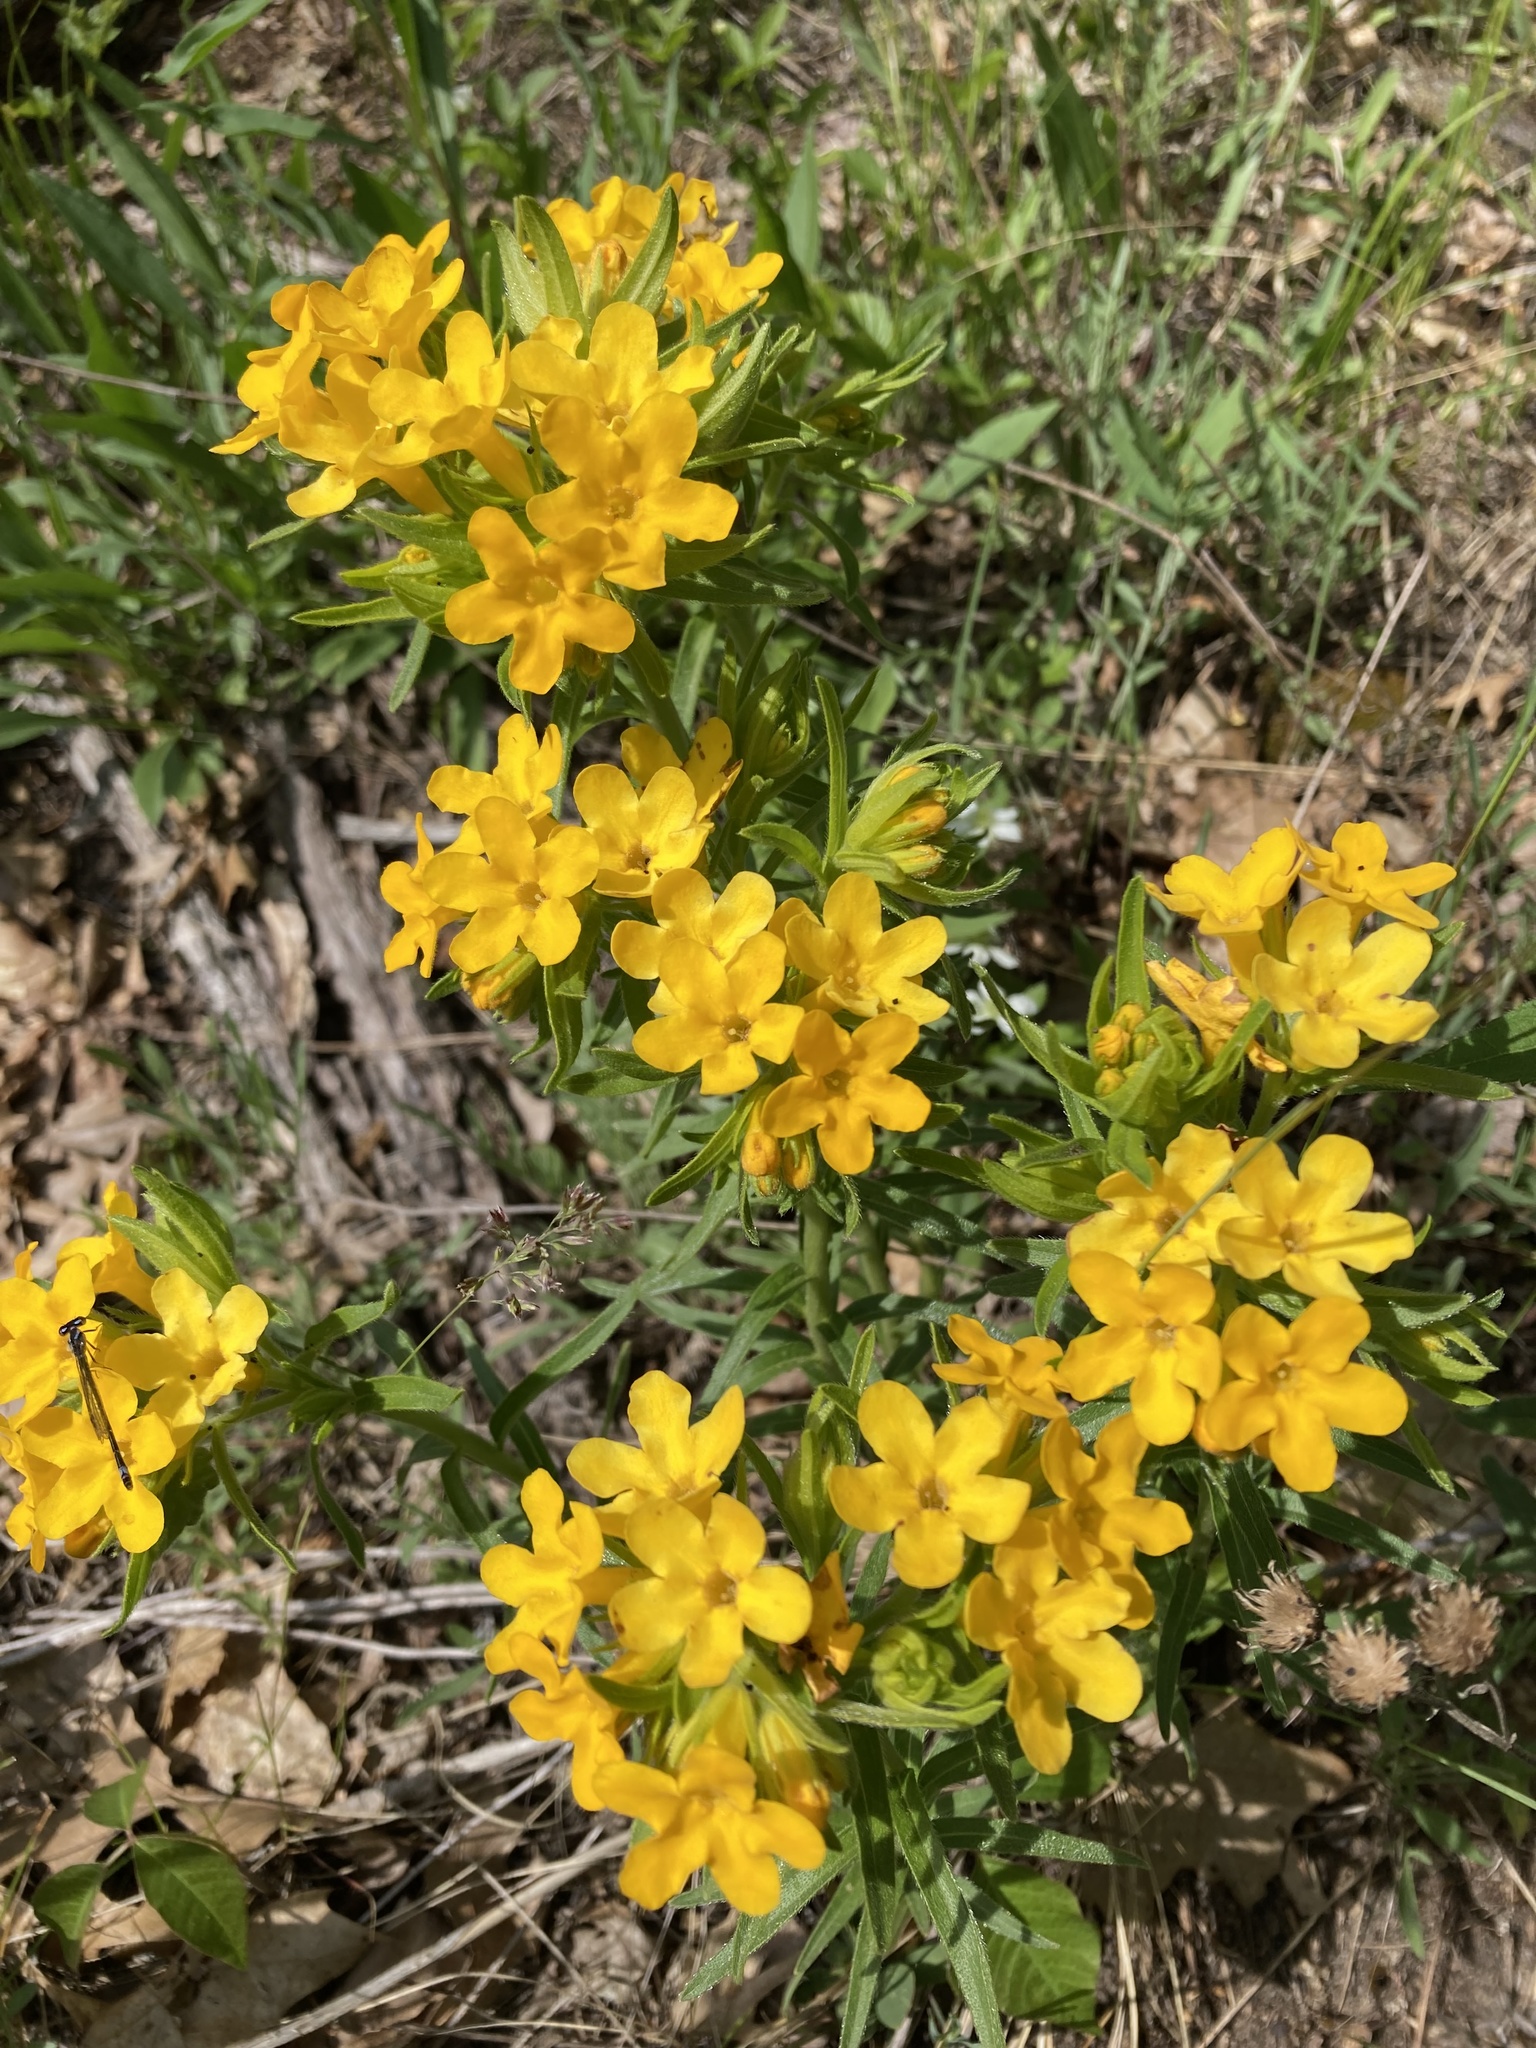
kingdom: Plantae
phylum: Tracheophyta
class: Magnoliopsida
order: Boraginales
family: Boraginaceae
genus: Lithospermum
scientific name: Lithospermum caroliniense
